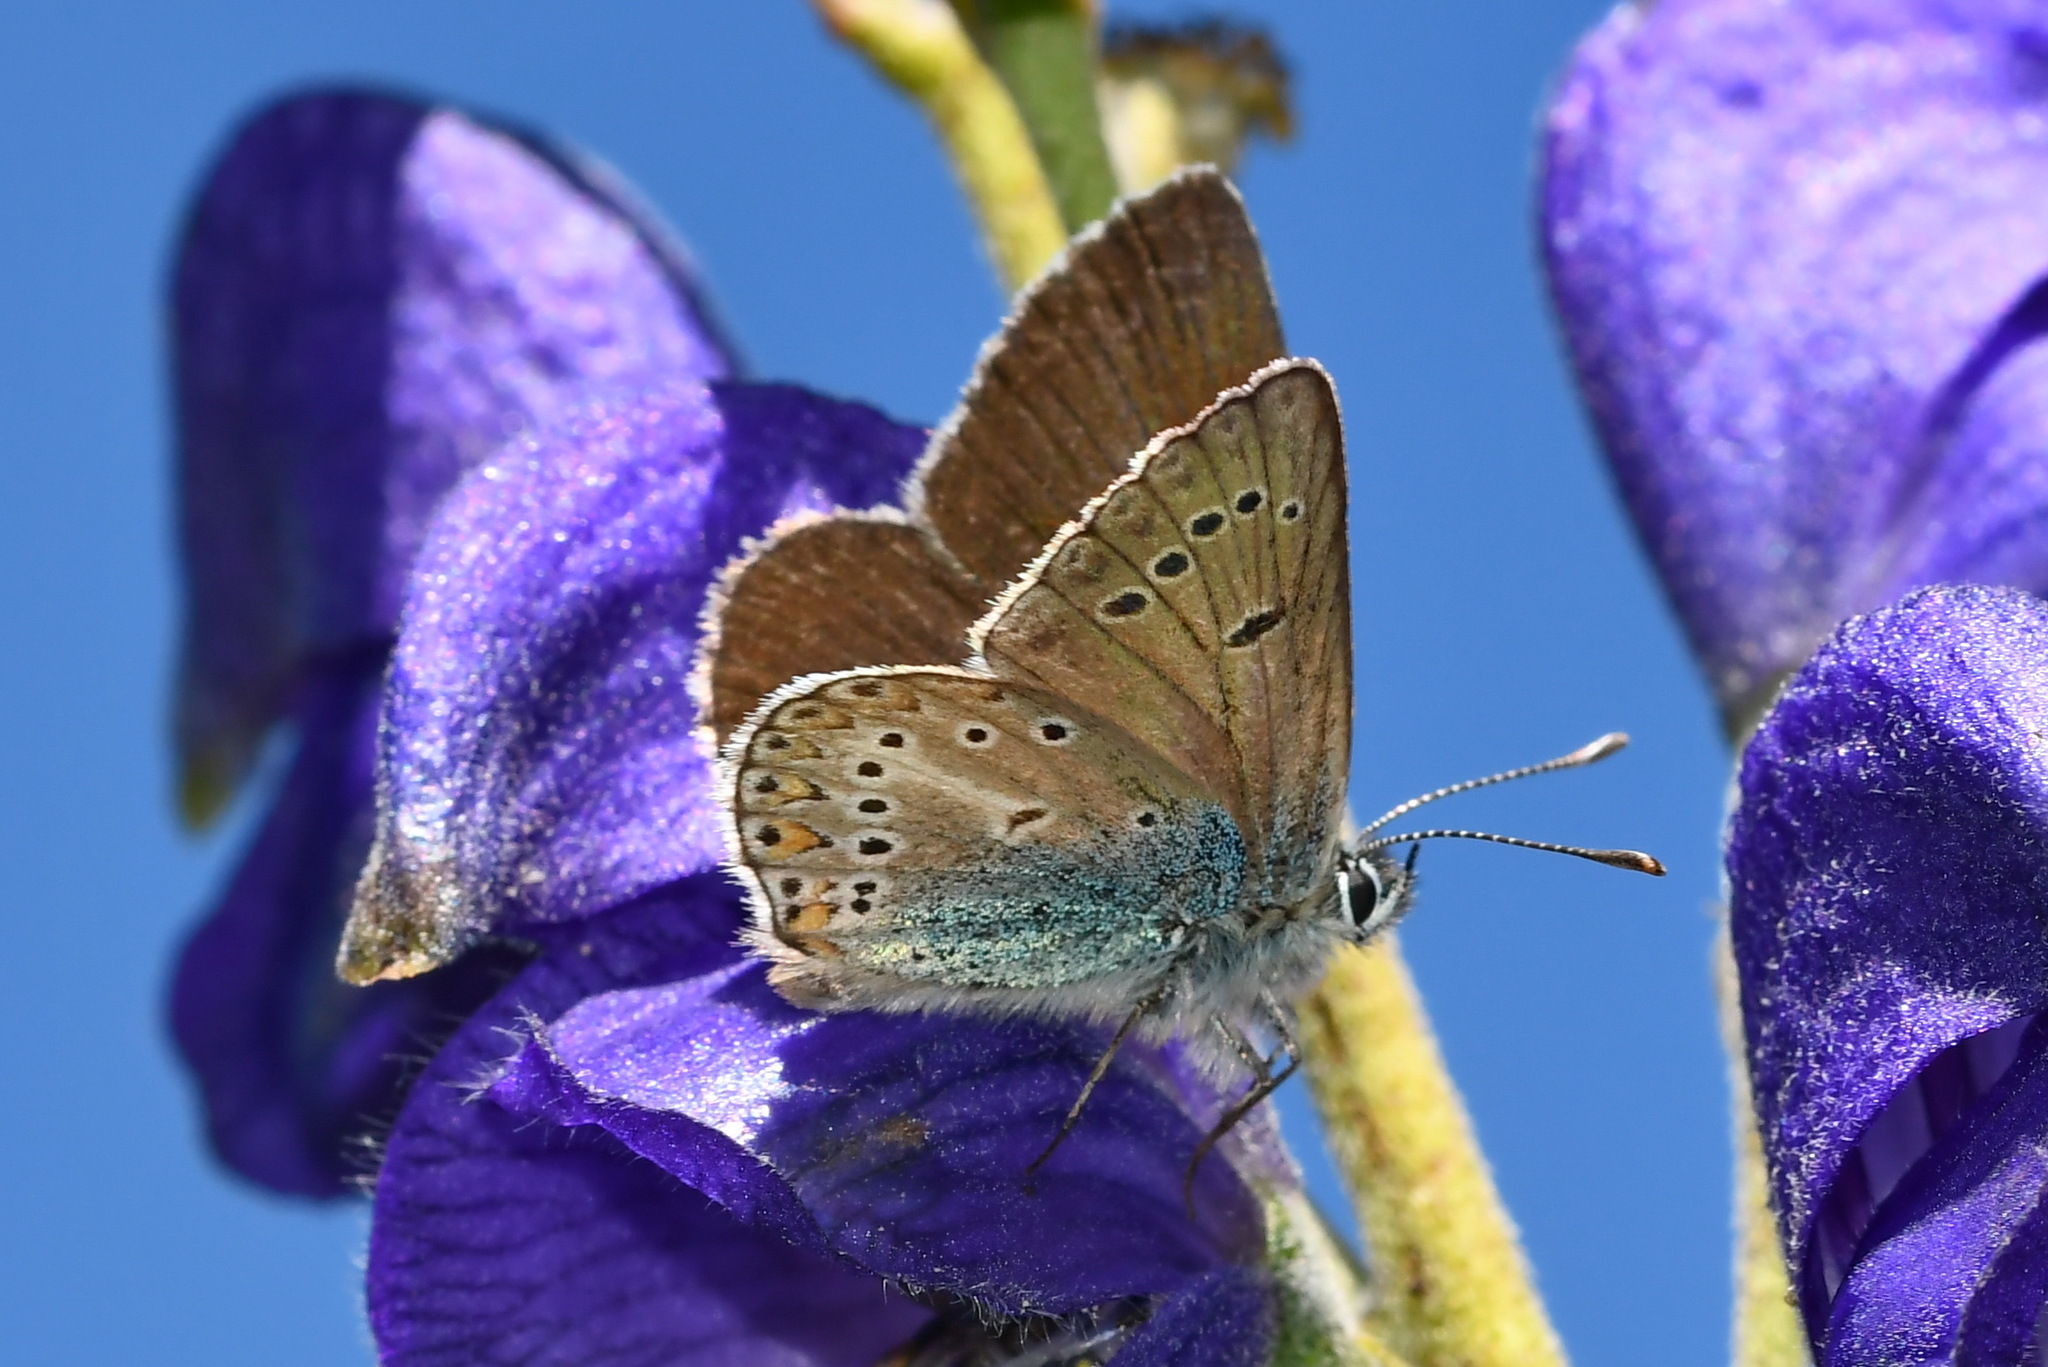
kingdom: Animalia
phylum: Arthropoda
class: Insecta
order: Lepidoptera
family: Lycaenidae
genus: Eumedonia
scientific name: Eumedonia eumedon
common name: Geranium argus
